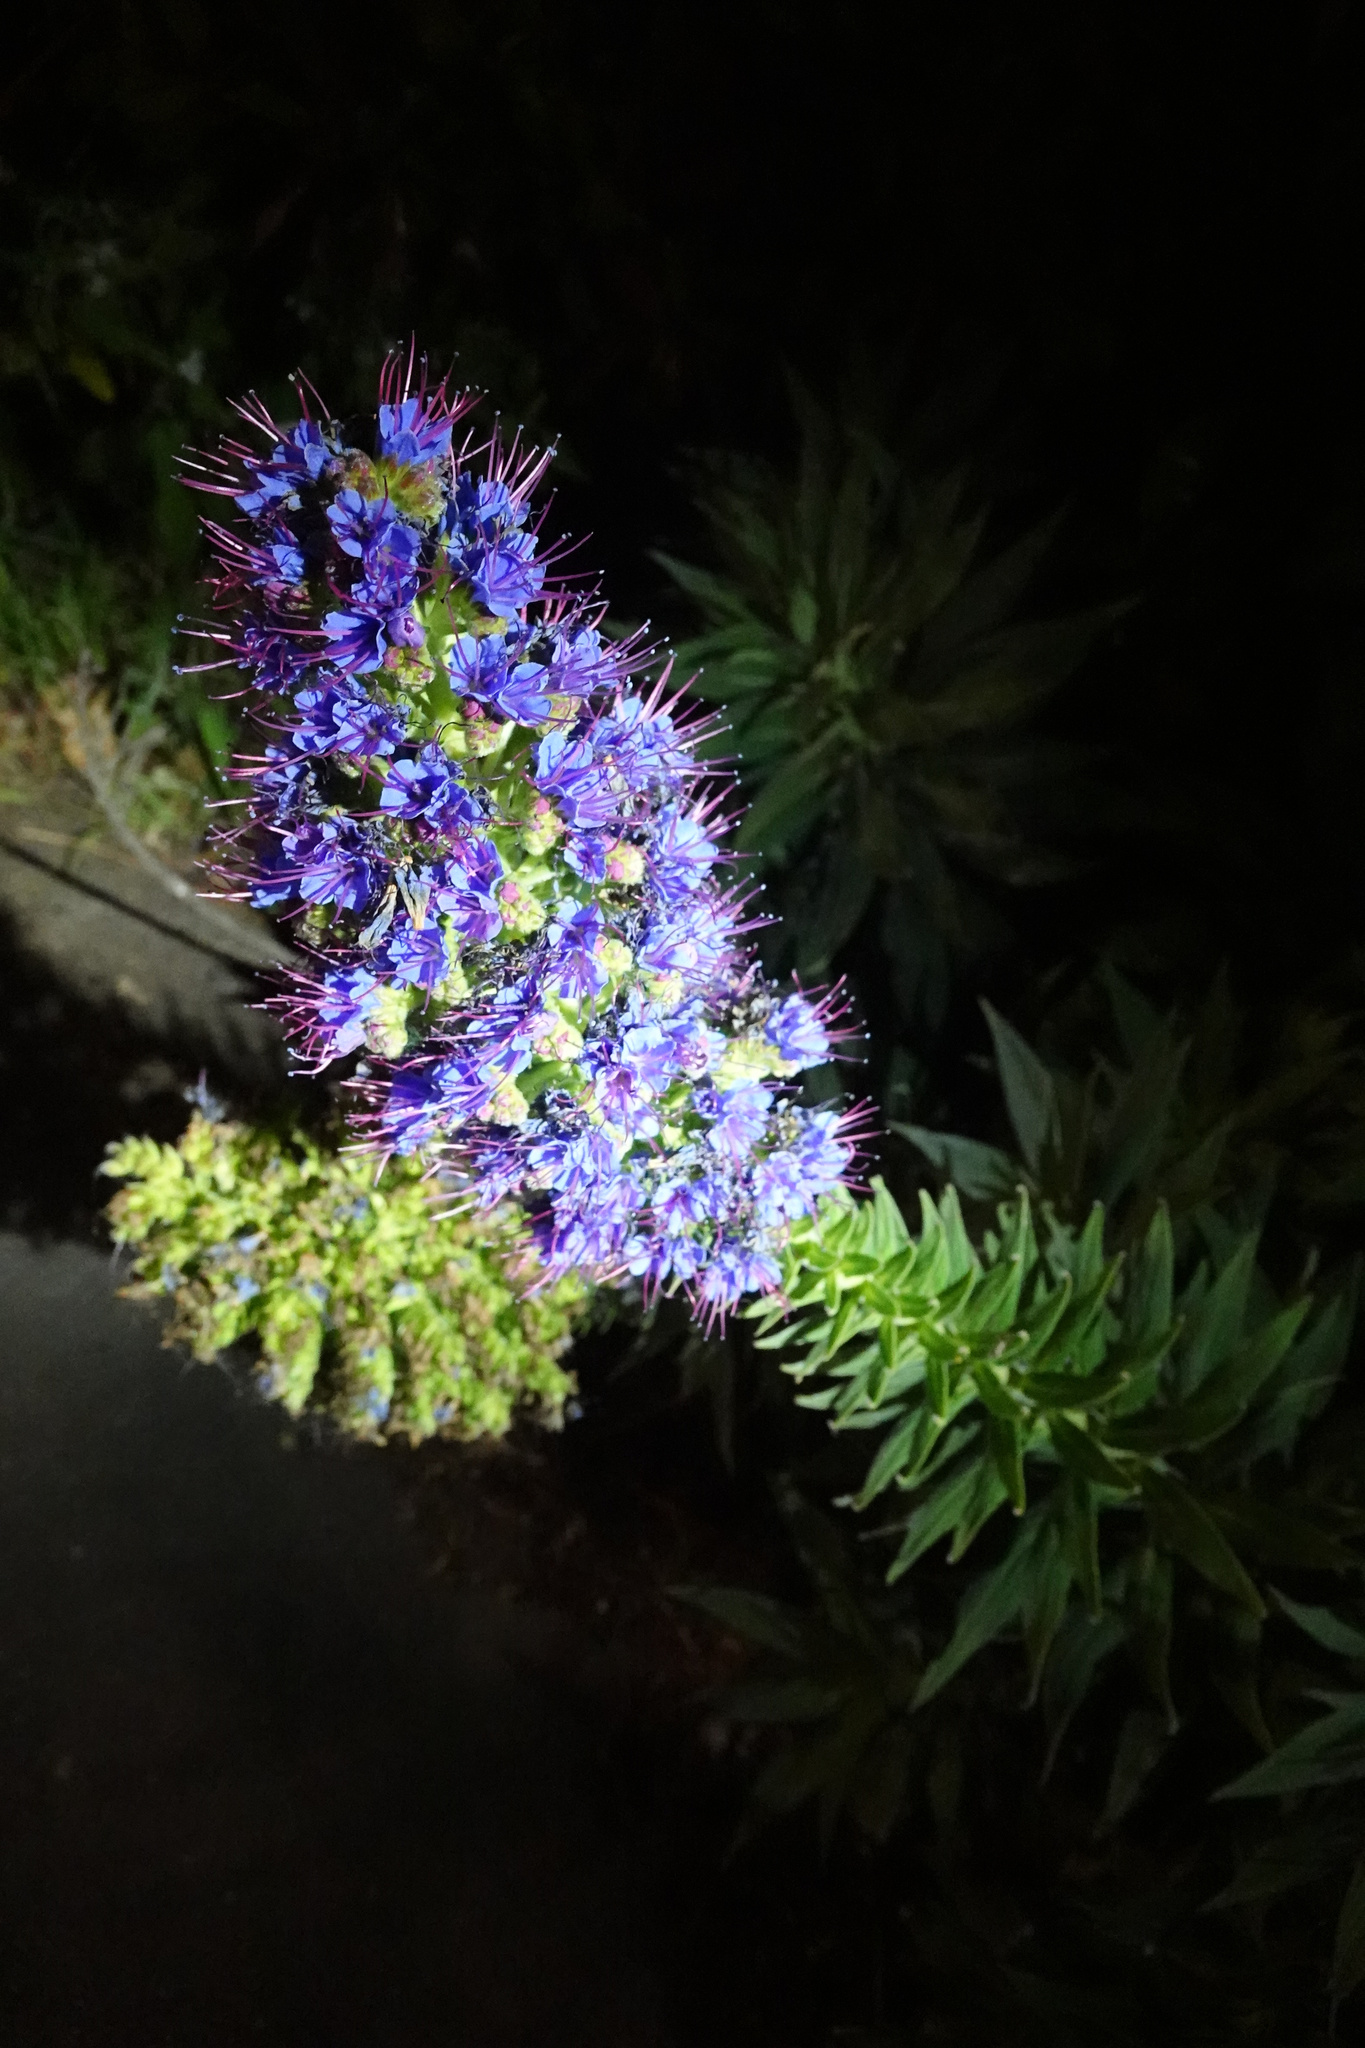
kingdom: Plantae
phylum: Tracheophyta
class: Magnoliopsida
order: Boraginales
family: Boraginaceae
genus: Echium
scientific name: Echium candicans
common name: Pride of madeira
